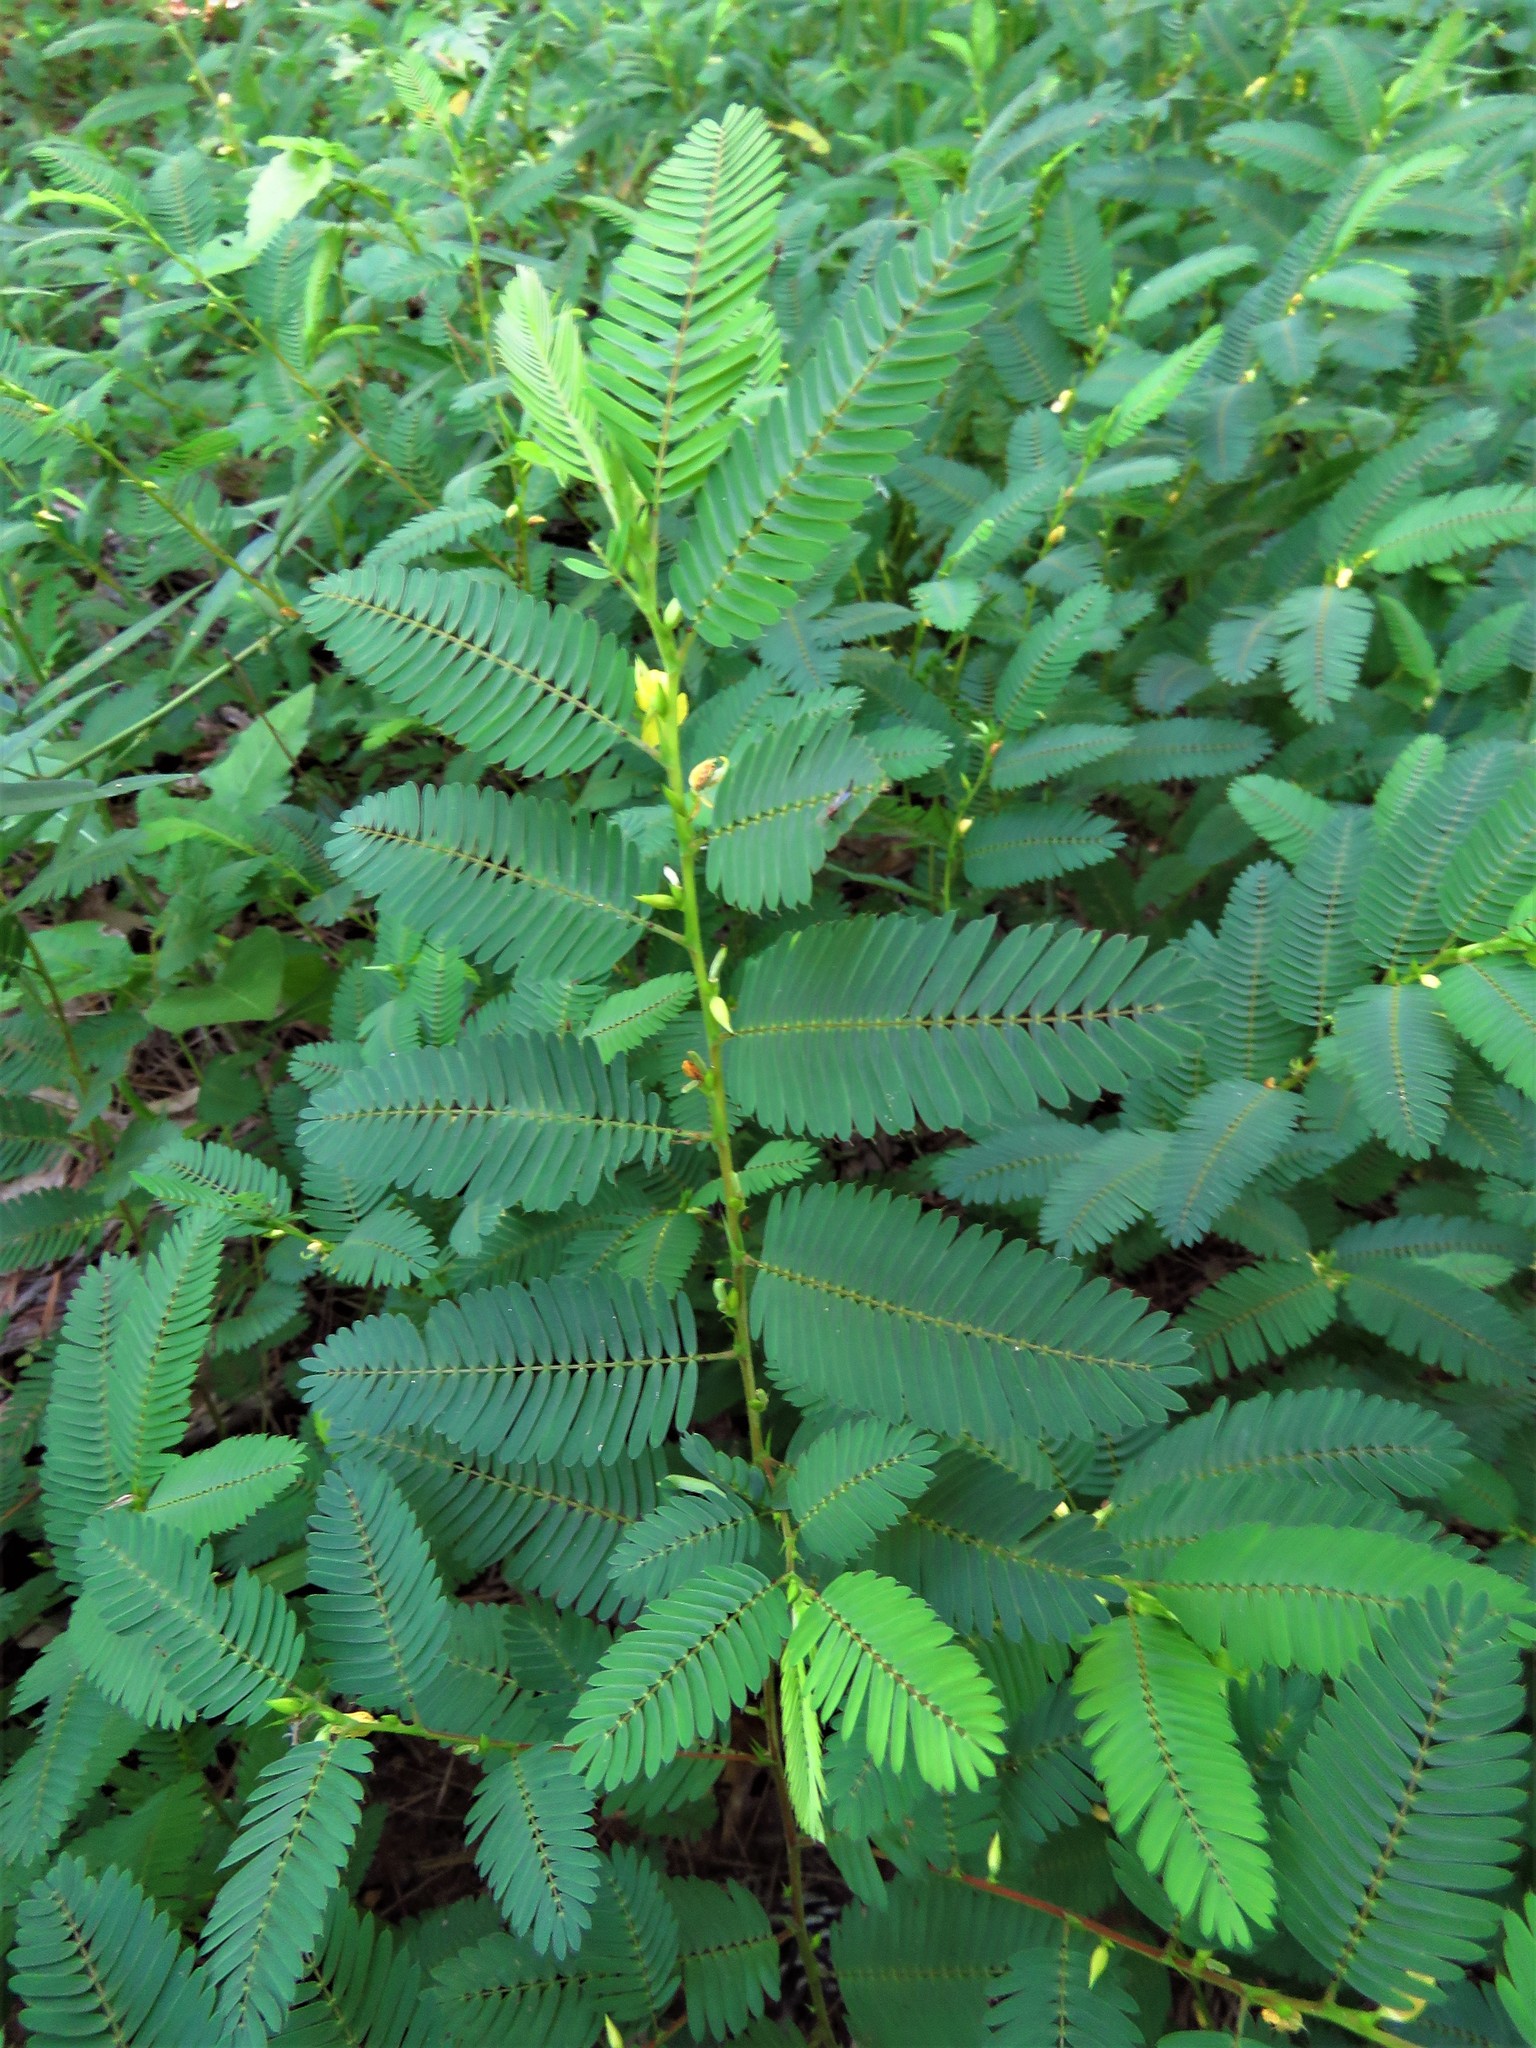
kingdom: Plantae
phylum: Tracheophyta
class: Magnoliopsida
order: Fabales
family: Fabaceae
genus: Chamaecrista
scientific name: Chamaecrista nictitans
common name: Sensitive cassia
